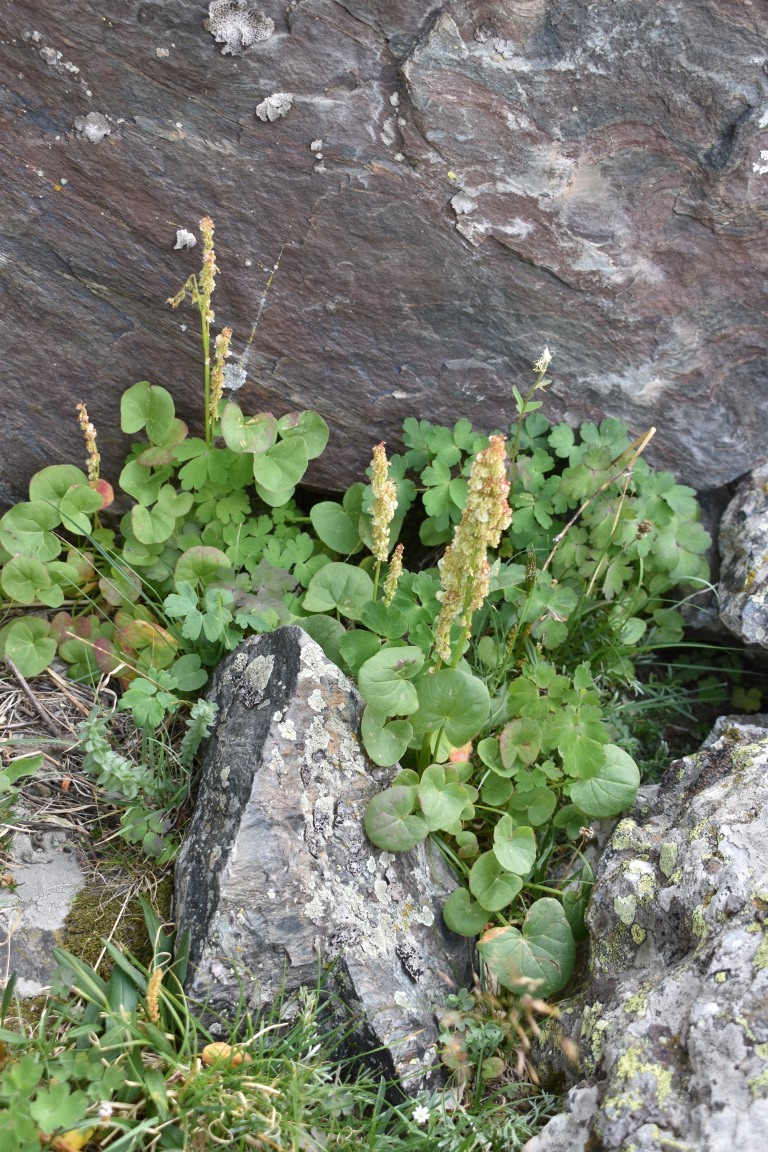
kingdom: Plantae
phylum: Tracheophyta
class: Magnoliopsida
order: Caryophyllales
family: Polygonaceae
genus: Oxyria
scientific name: Oxyria digyna
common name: Alpine mountain-sorrel
